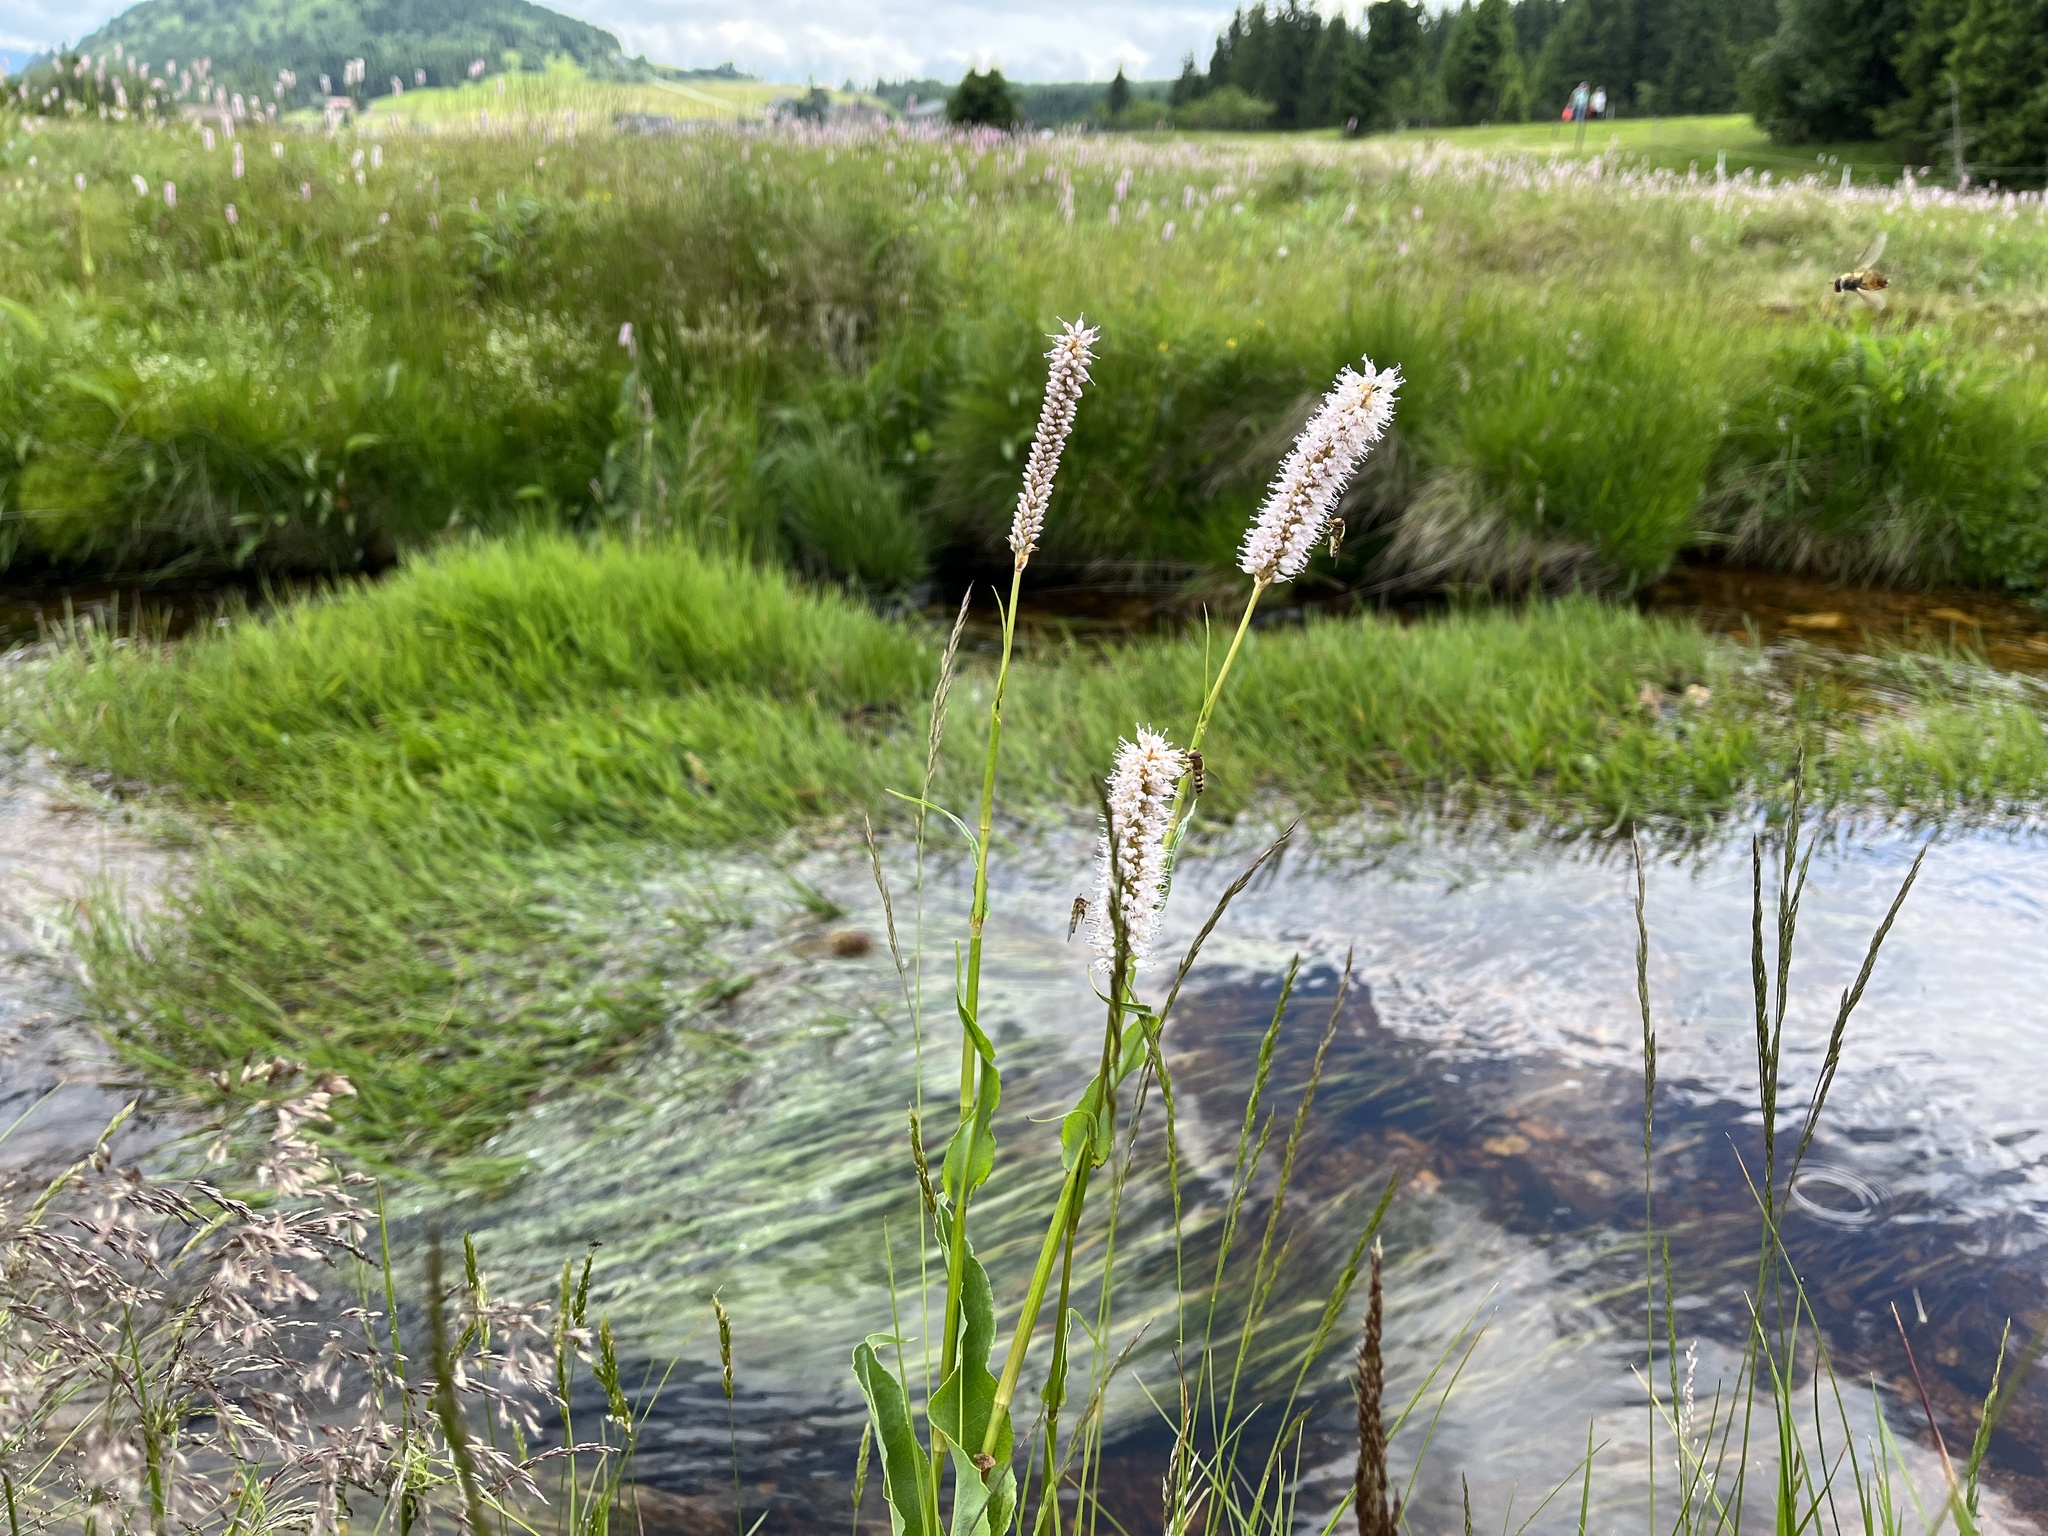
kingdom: Plantae
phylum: Tracheophyta
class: Magnoliopsida
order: Caryophyllales
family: Polygonaceae
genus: Bistorta
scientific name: Bistorta officinalis
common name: Common bistort
